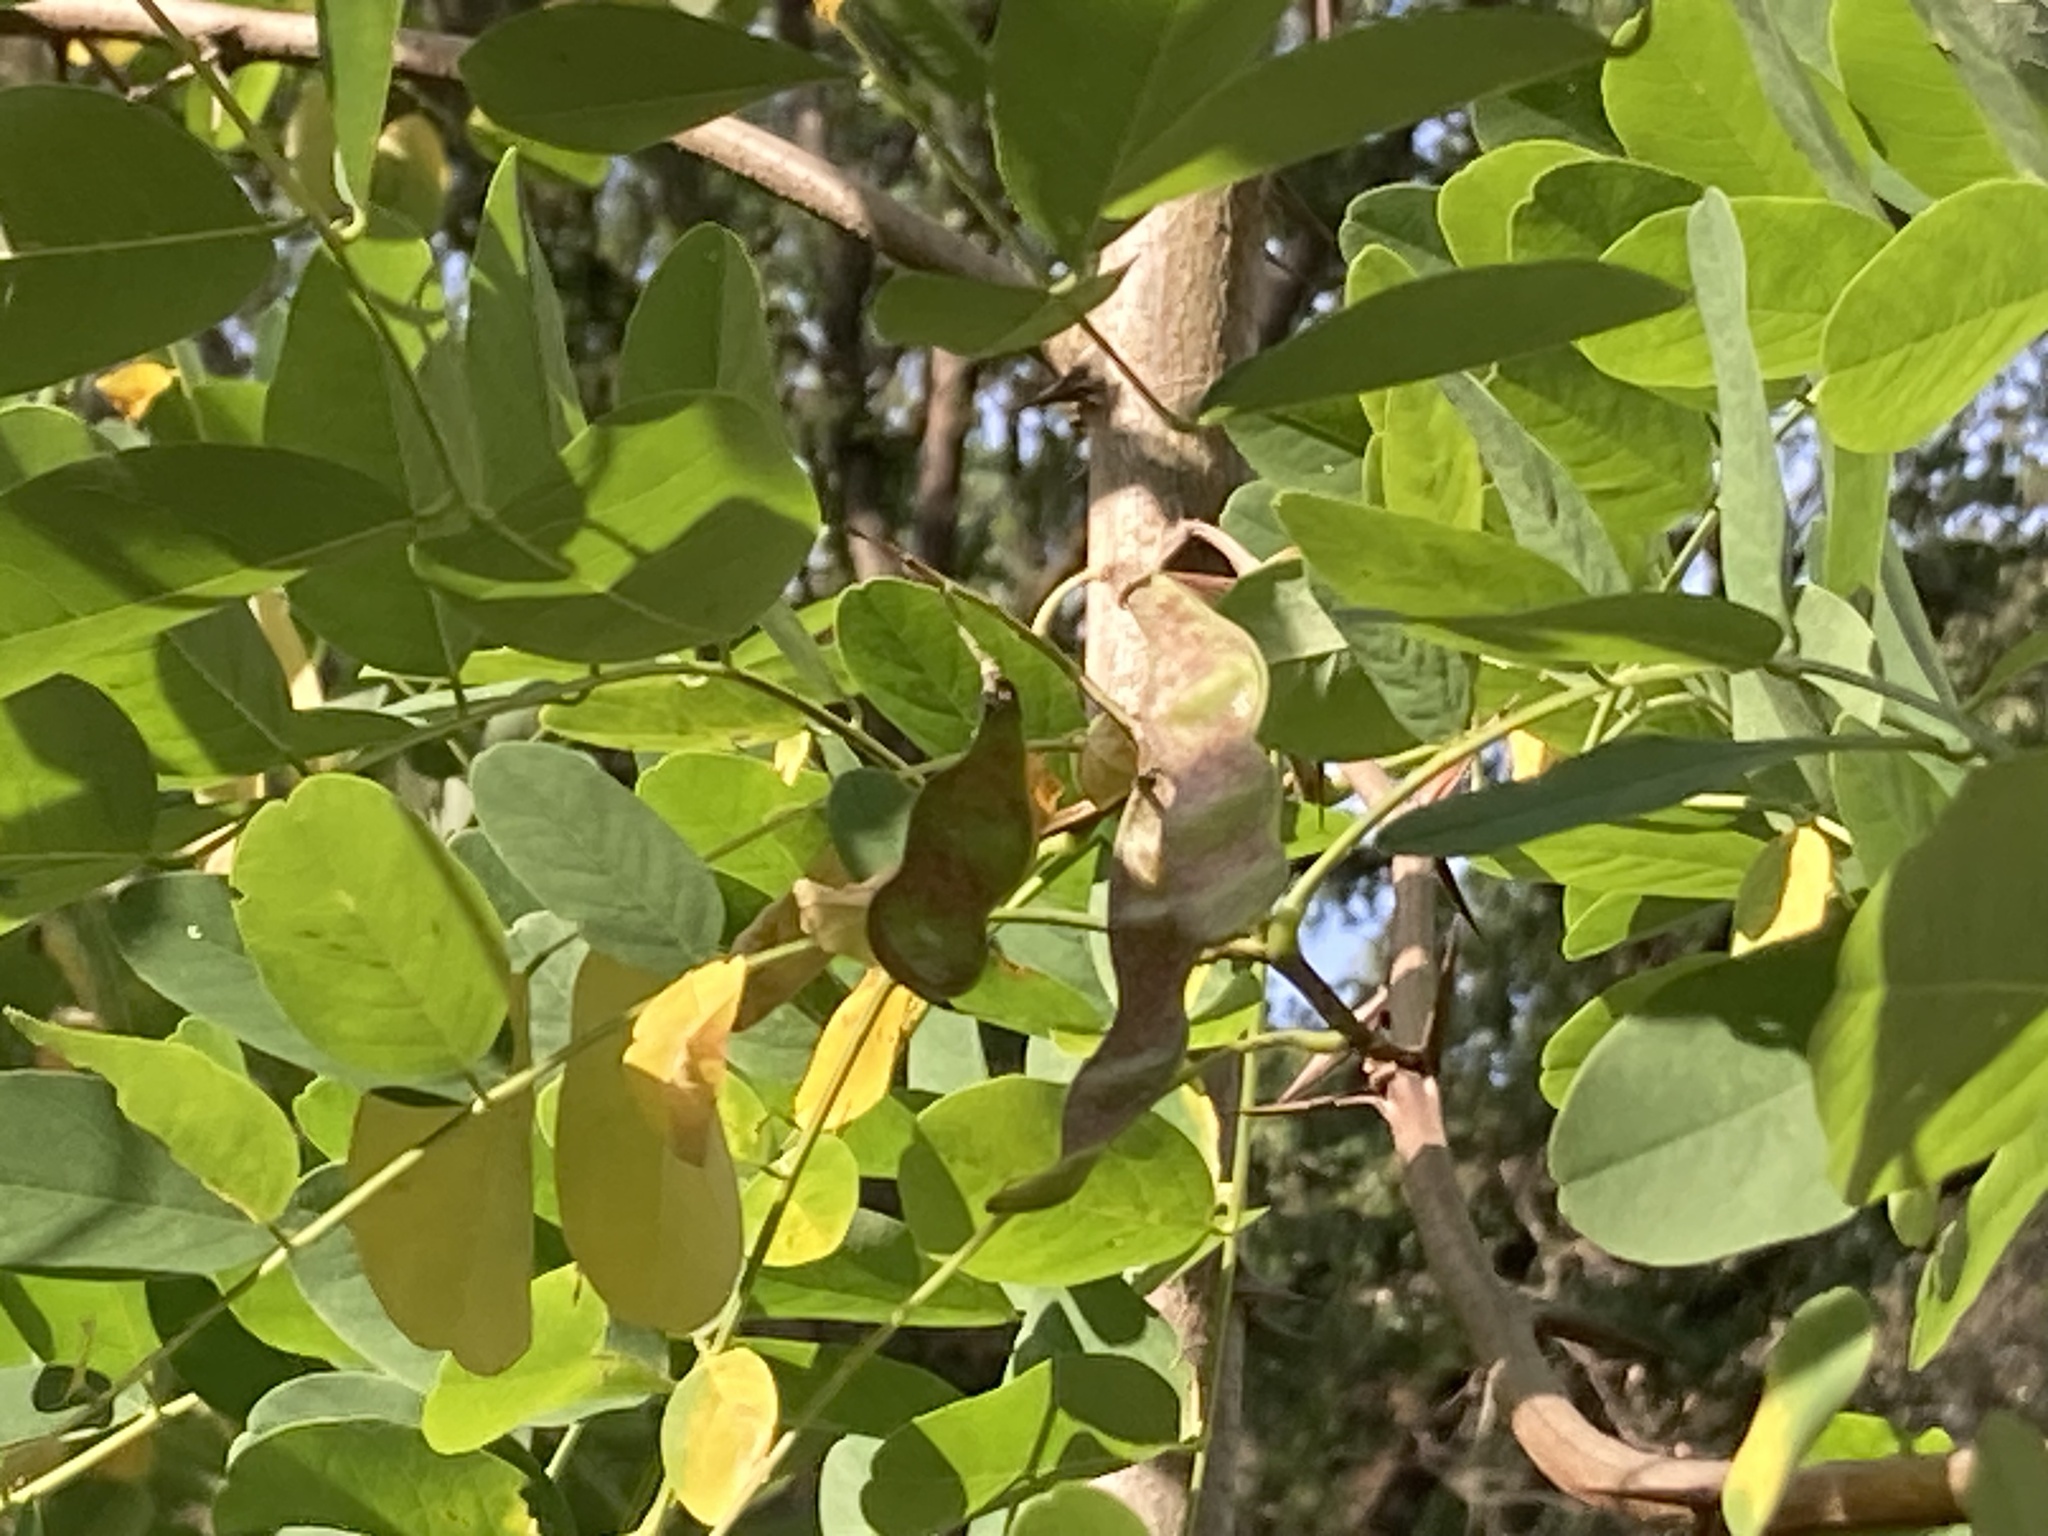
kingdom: Plantae
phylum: Tracheophyta
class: Magnoliopsida
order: Fabales
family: Fabaceae
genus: Robinia
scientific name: Robinia pseudoacacia
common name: Black locust
